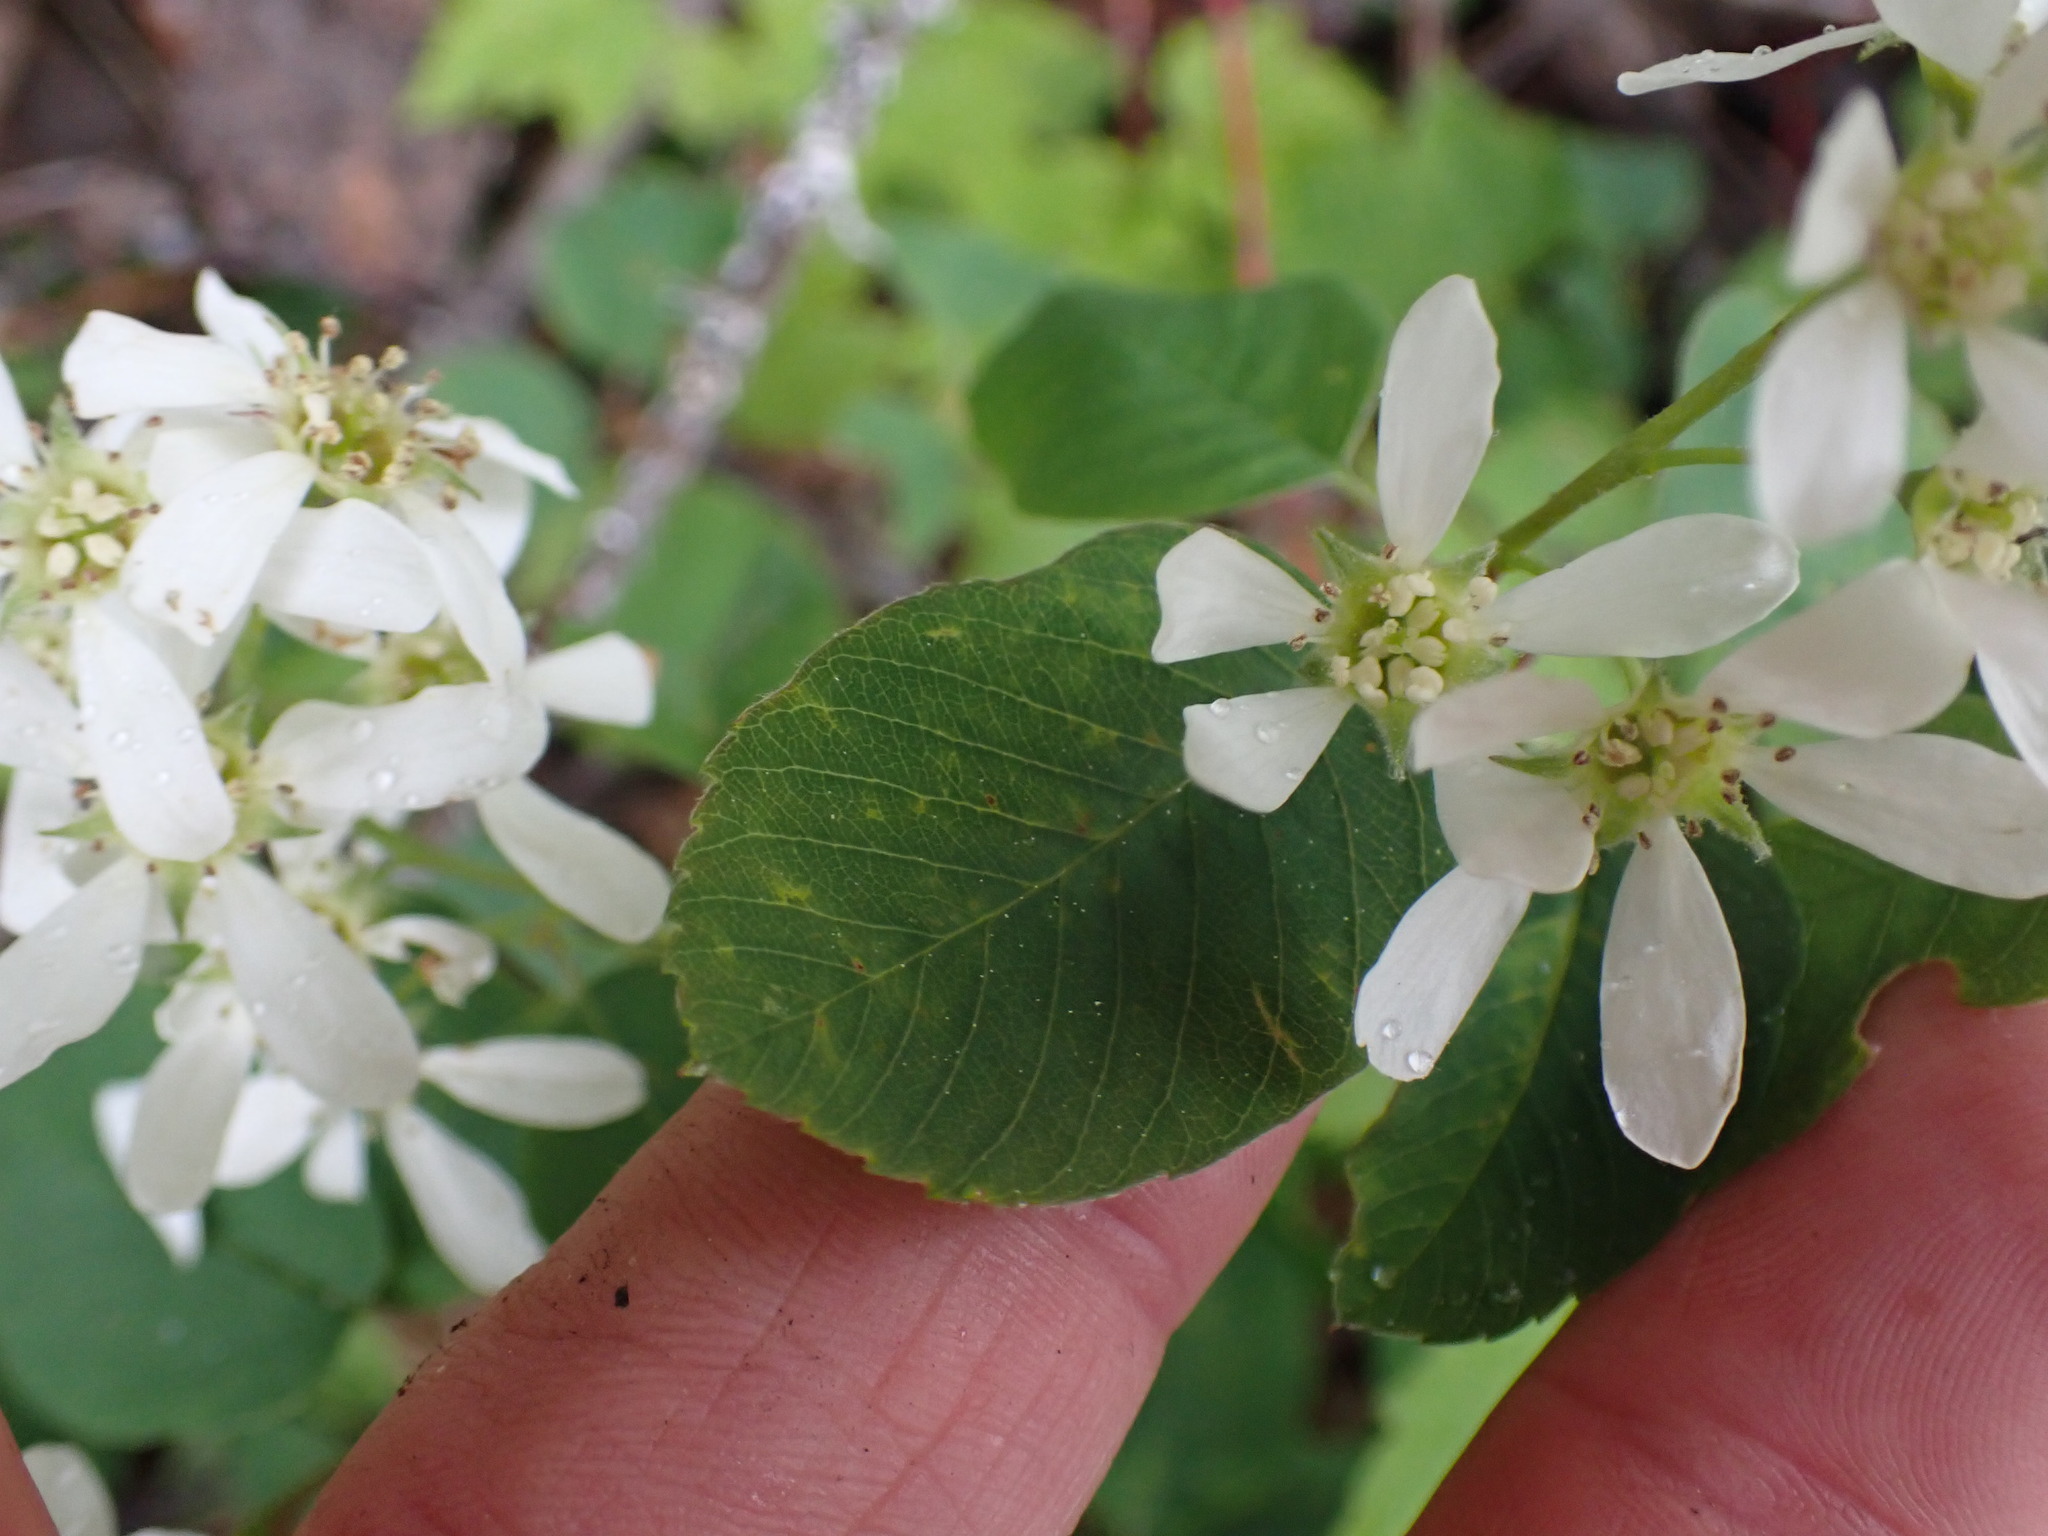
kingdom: Plantae
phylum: Tracheophyta
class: Magnoliopsida
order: Rosales
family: Rosaceae
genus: Amelanchier
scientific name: Amelanchier alnifolia
